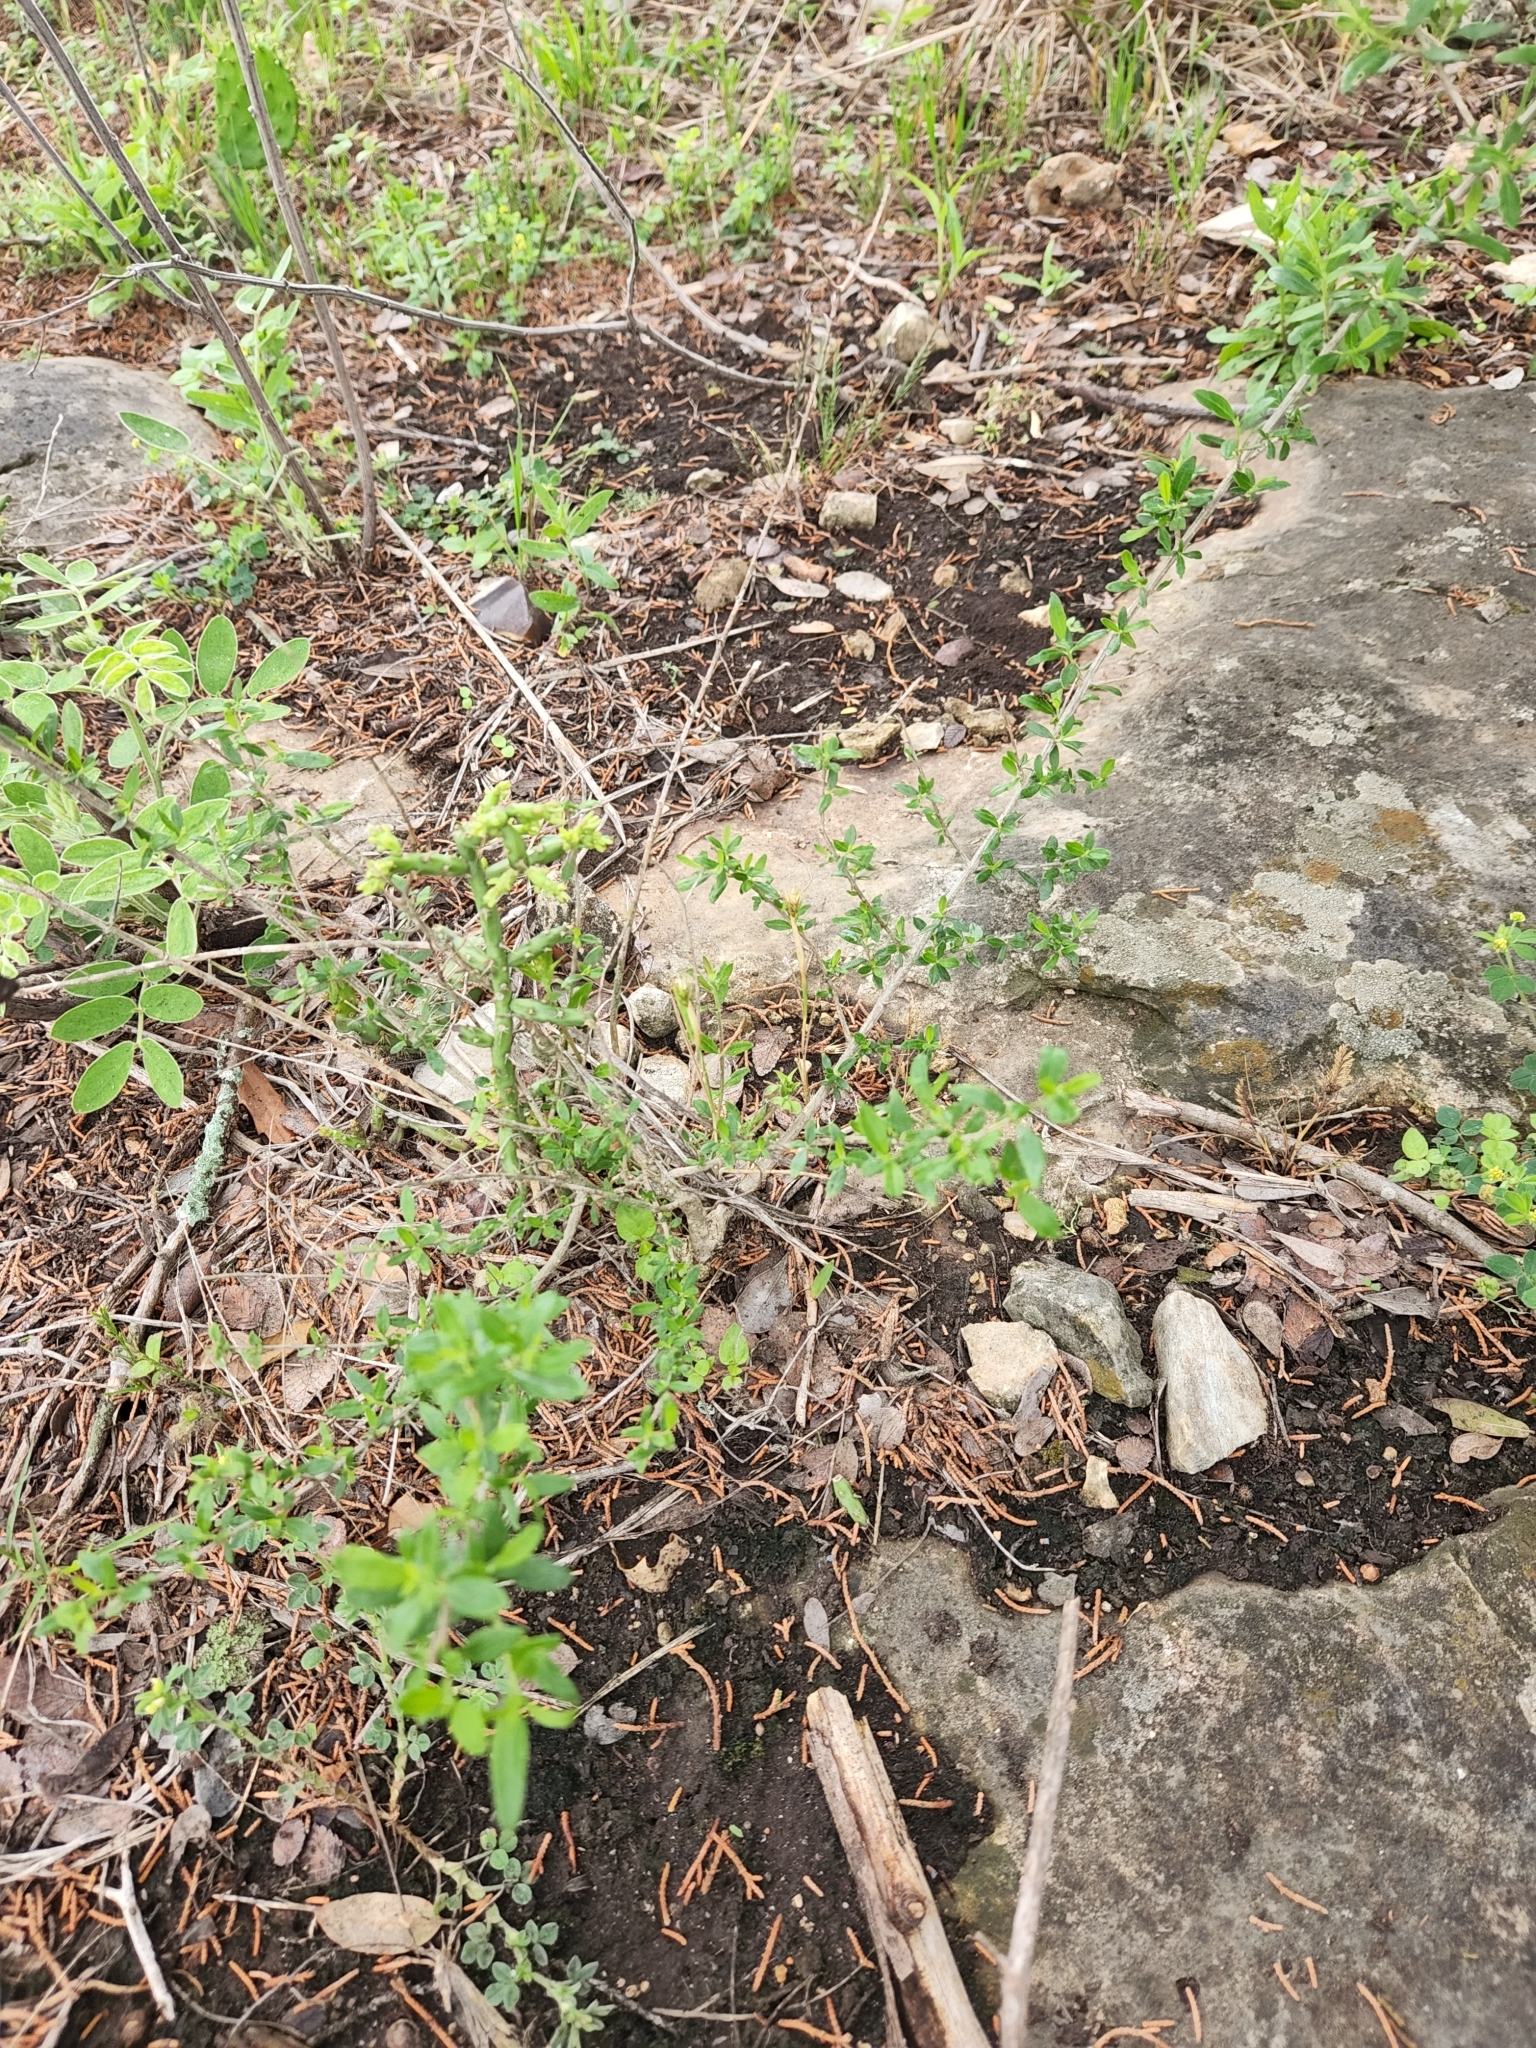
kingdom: Plantae
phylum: Tracheophyta
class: Magnoliopsida
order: Lamiales
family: Verbenaceae
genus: Aloysia
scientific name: Aloysia gratissima
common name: Common bee-brush
